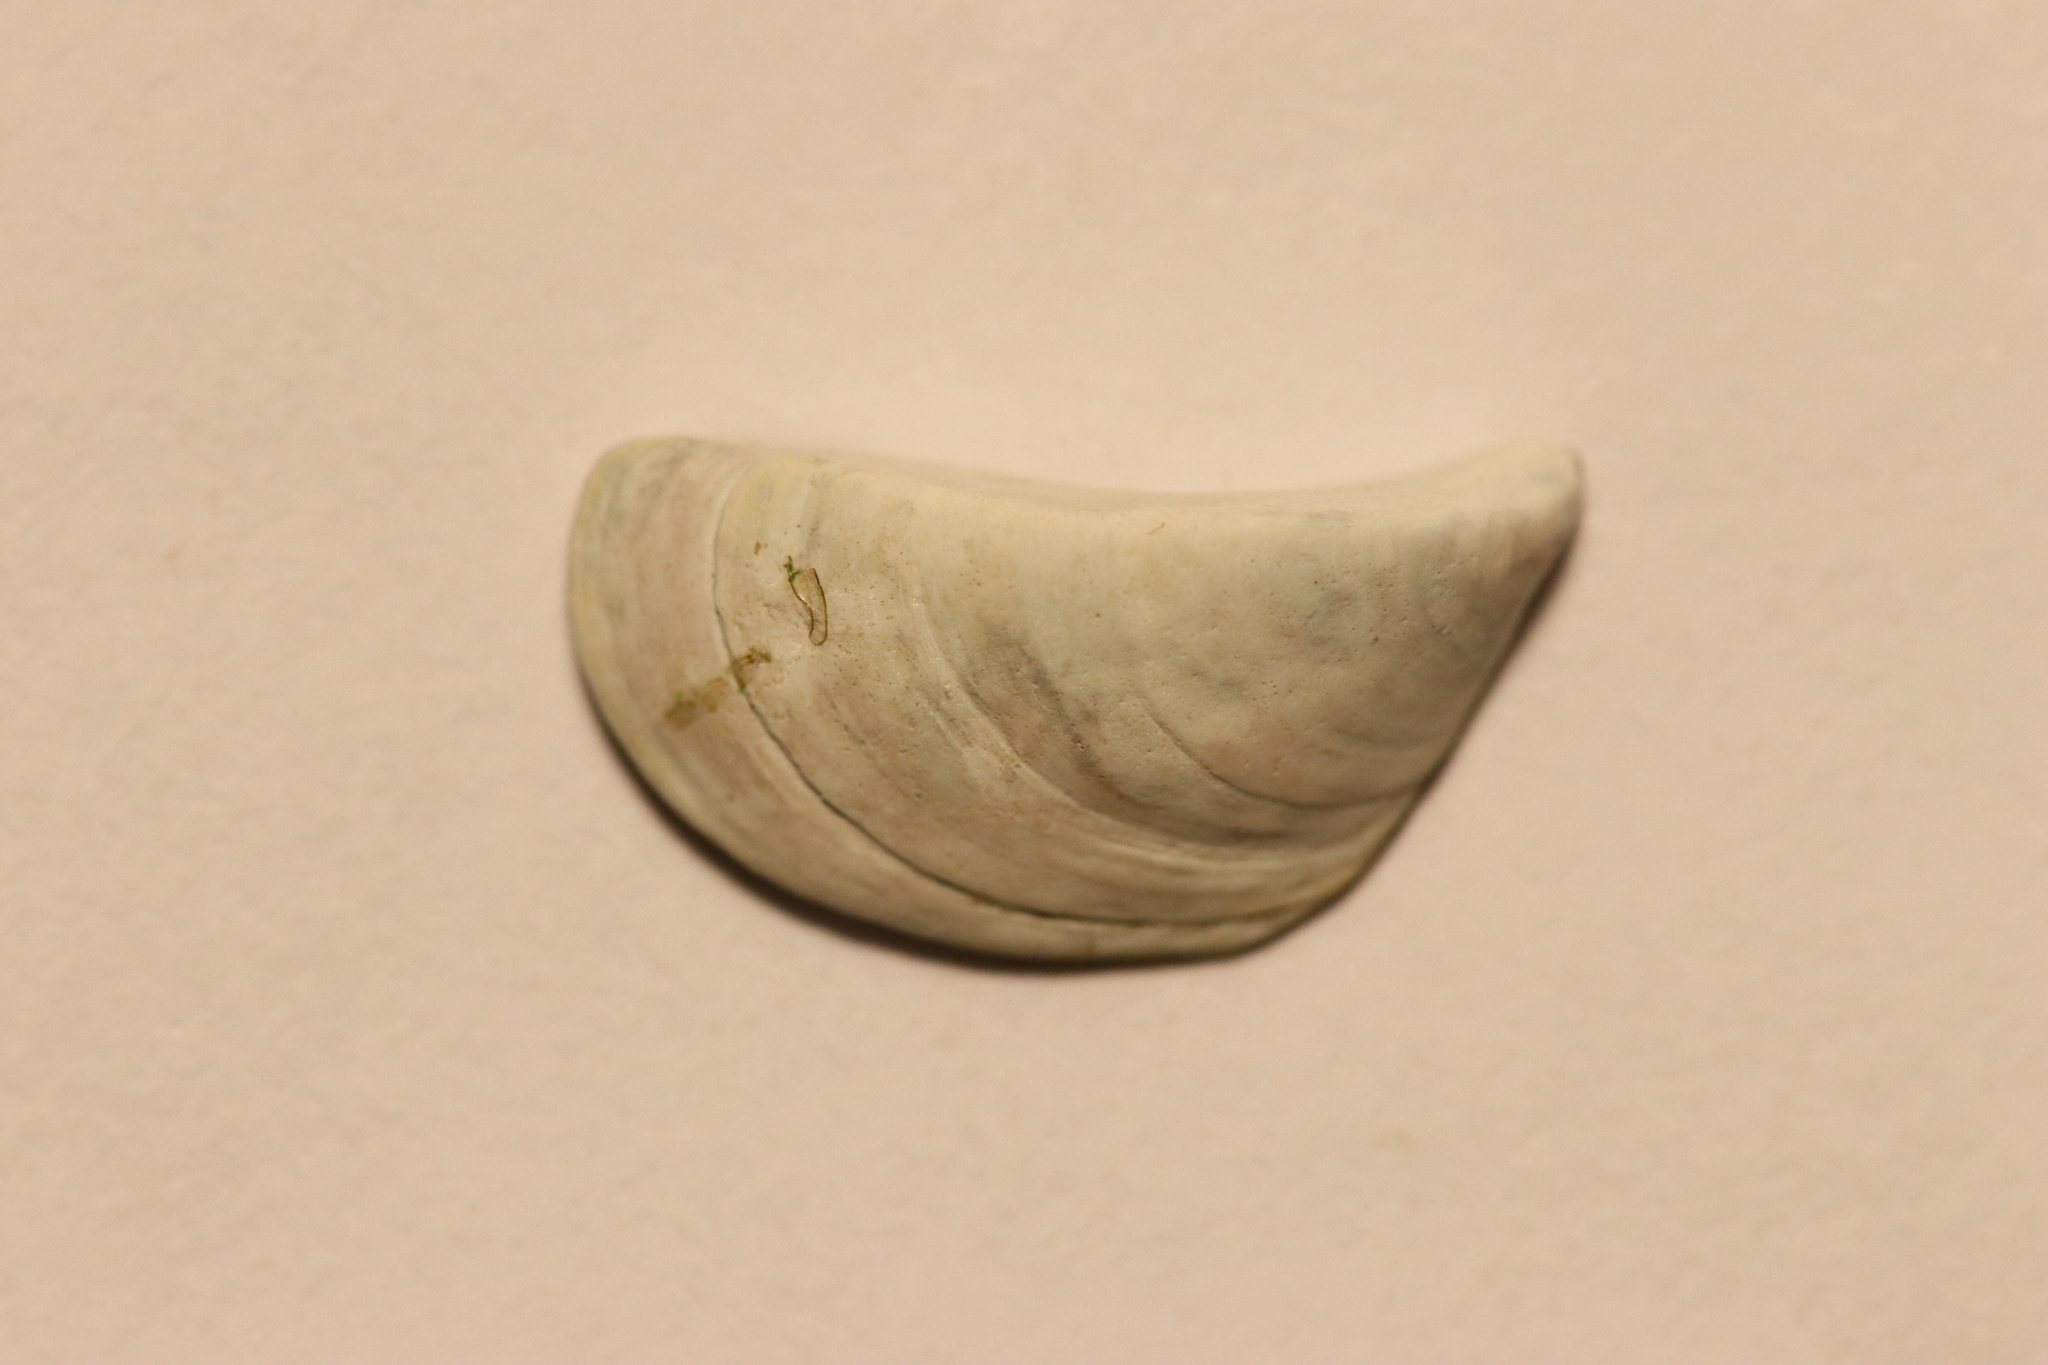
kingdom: Animalia
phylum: Mollusca
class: Bivalvia
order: Myida
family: Dreissenidae
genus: Dreissena
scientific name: Dreissena polymorpha
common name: Zebra mussel
